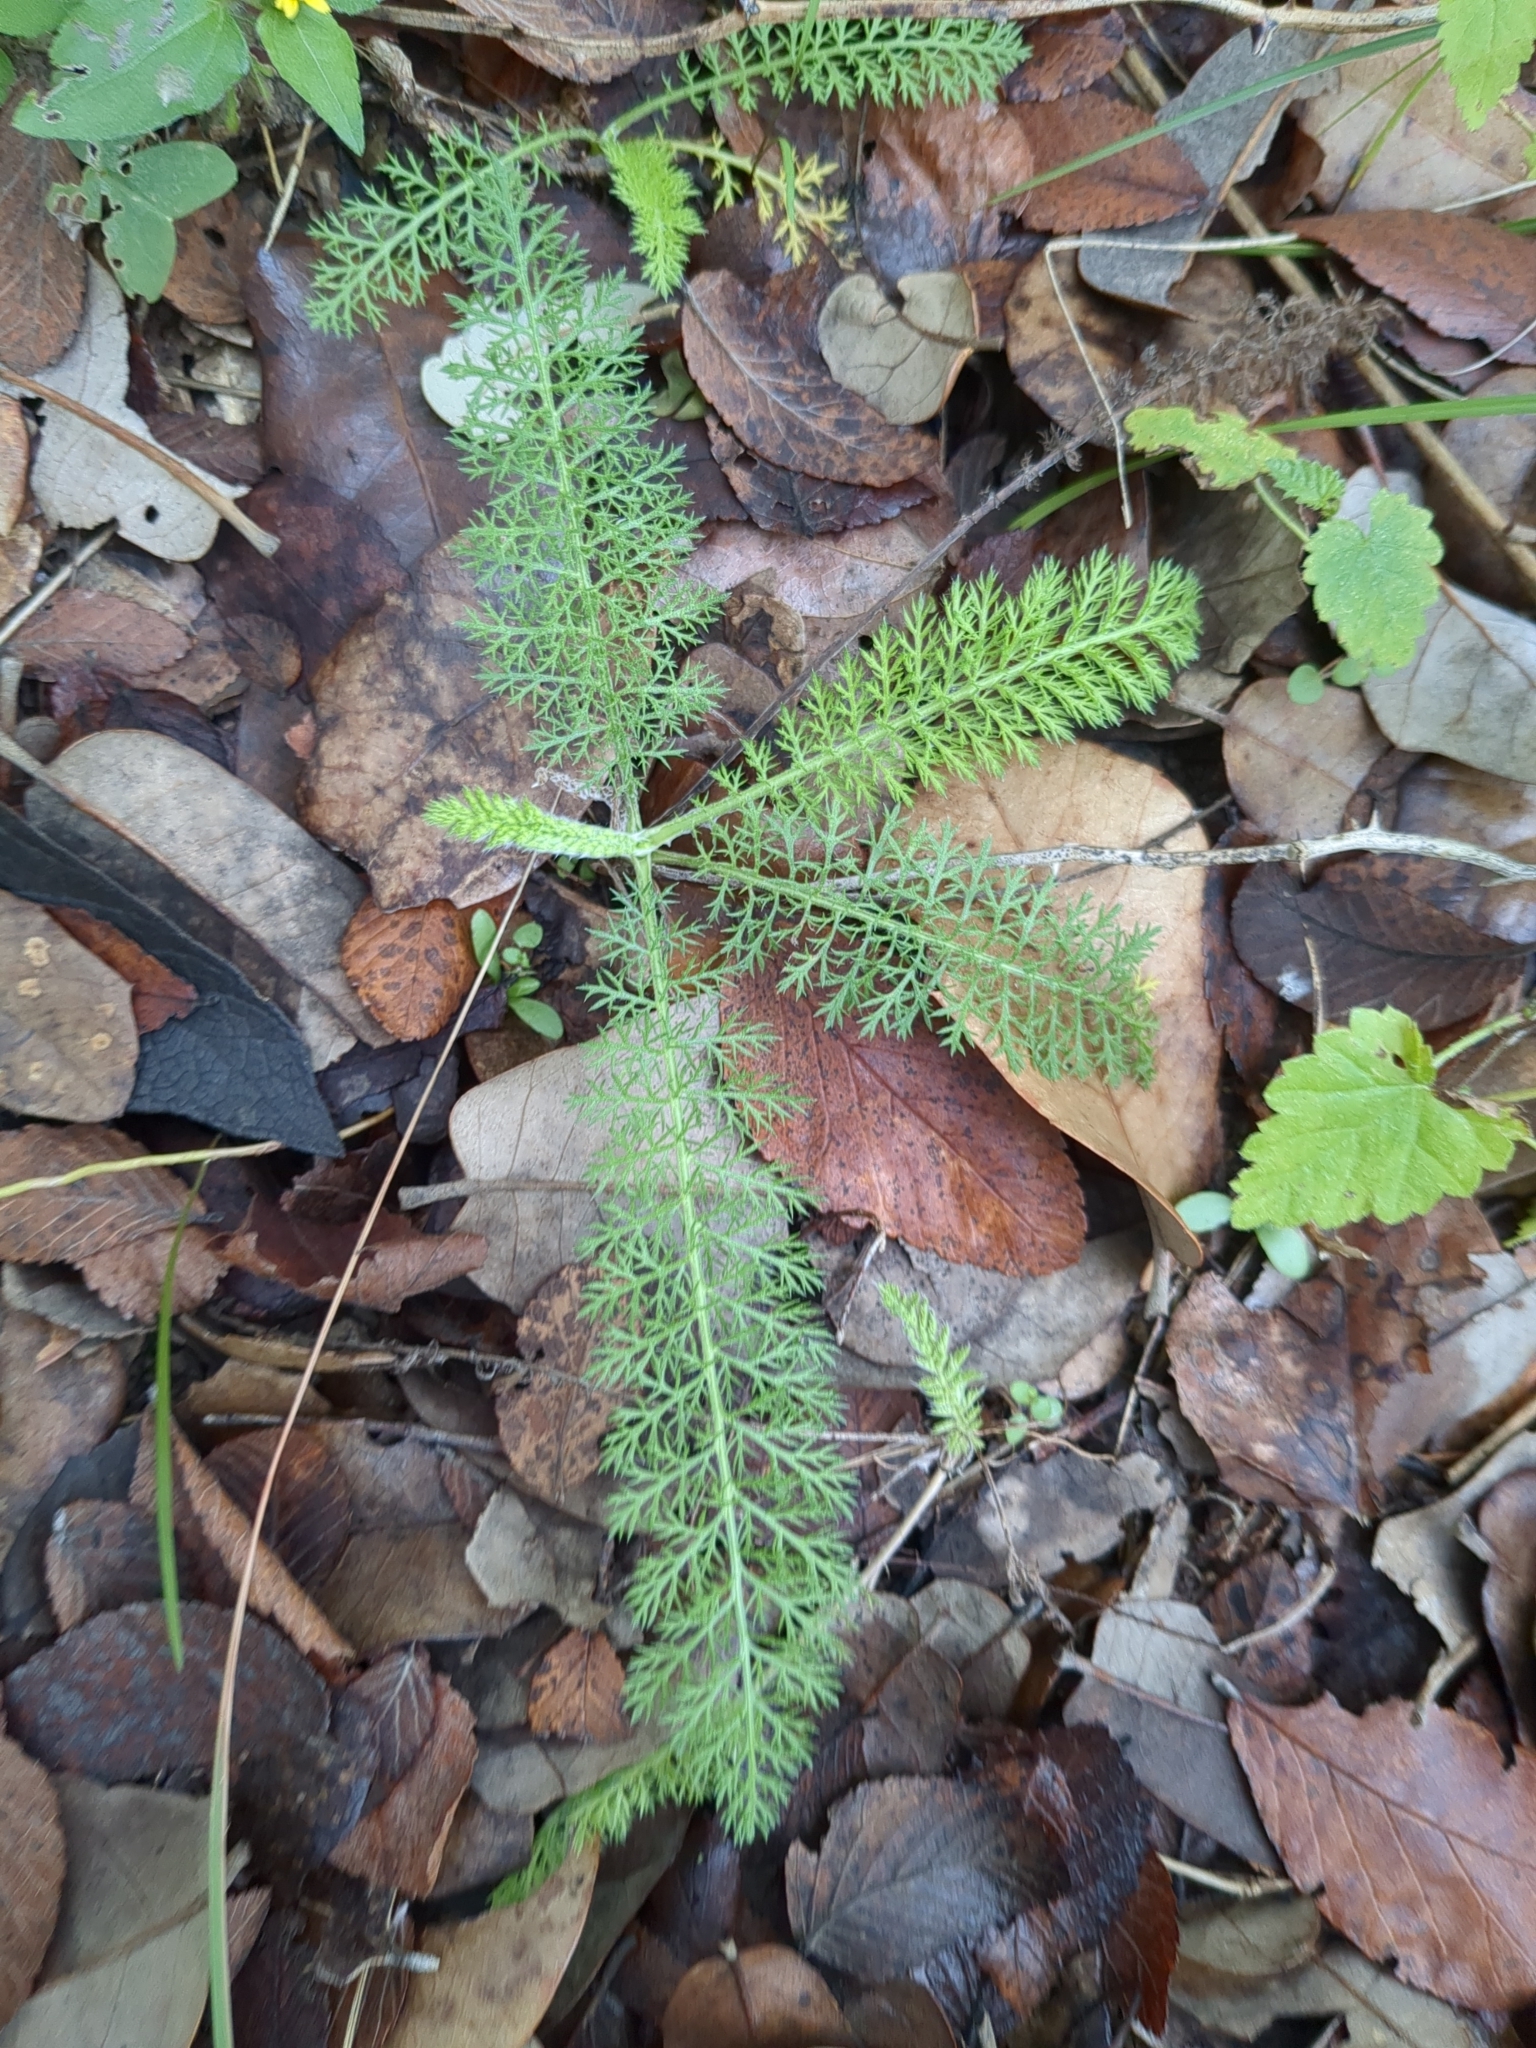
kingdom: Plantae
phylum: Tracheophyta
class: Magnoliopsida
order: Asterales
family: Asteraceae
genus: Achillea
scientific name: Achillea millefolium
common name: Yarrow
